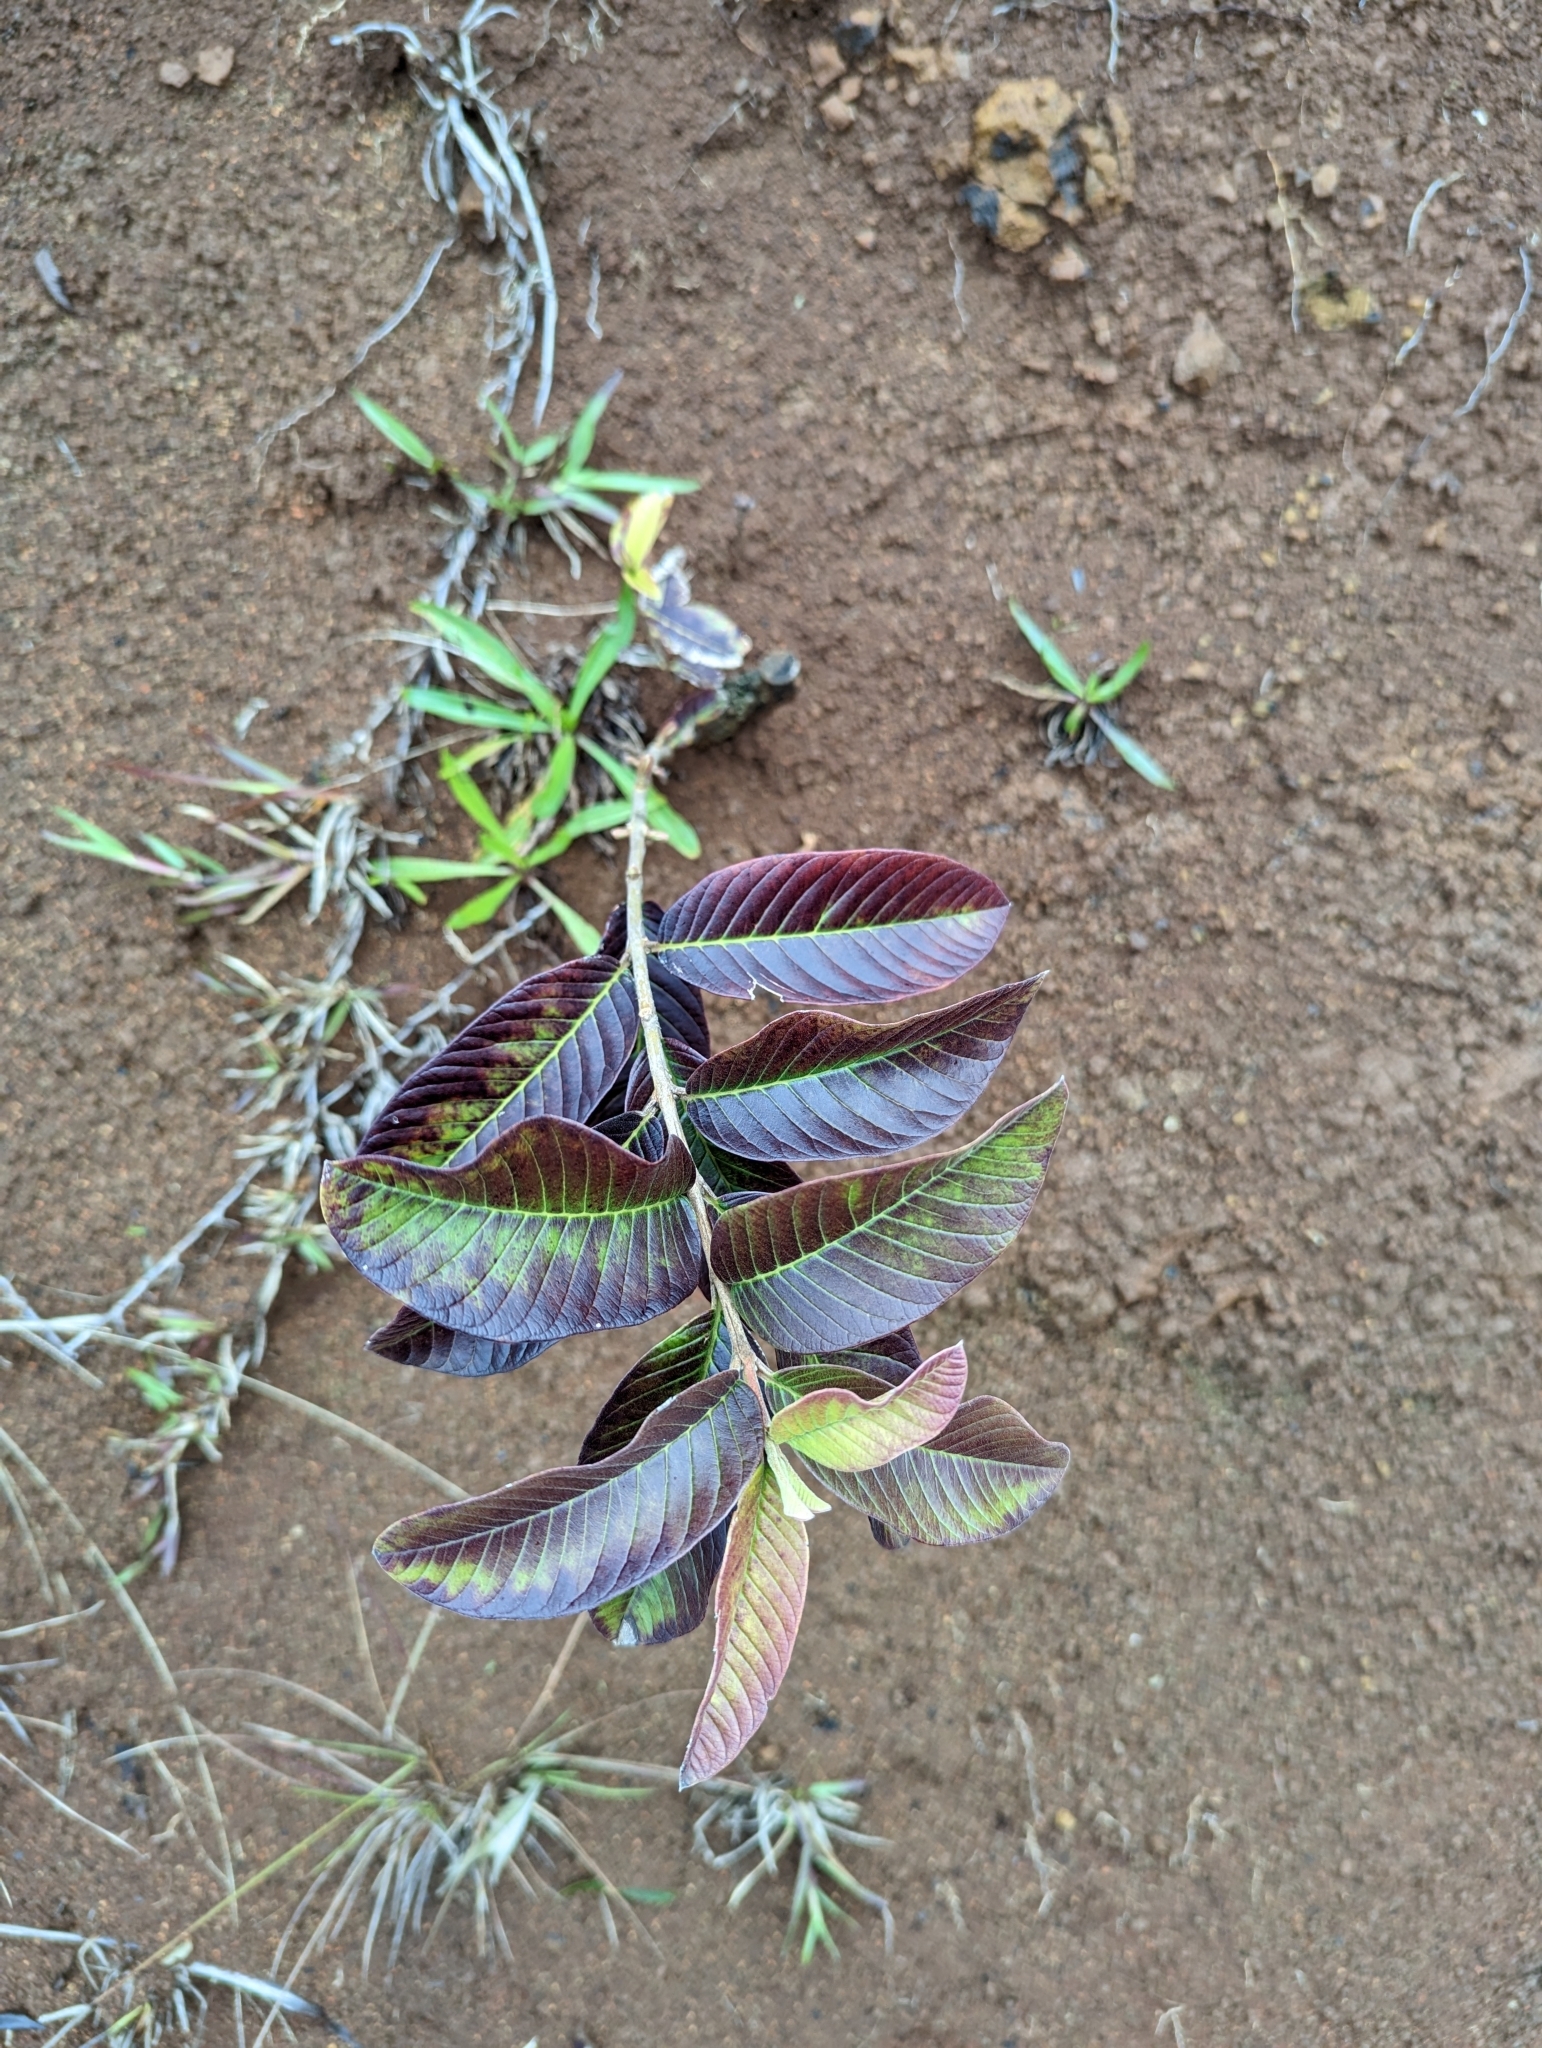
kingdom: Plantae
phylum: Tracheophyta
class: Magnoliopsida
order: Myrtales
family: Myrtaceae
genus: Psidium
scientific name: Psidium guajava
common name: Guava
